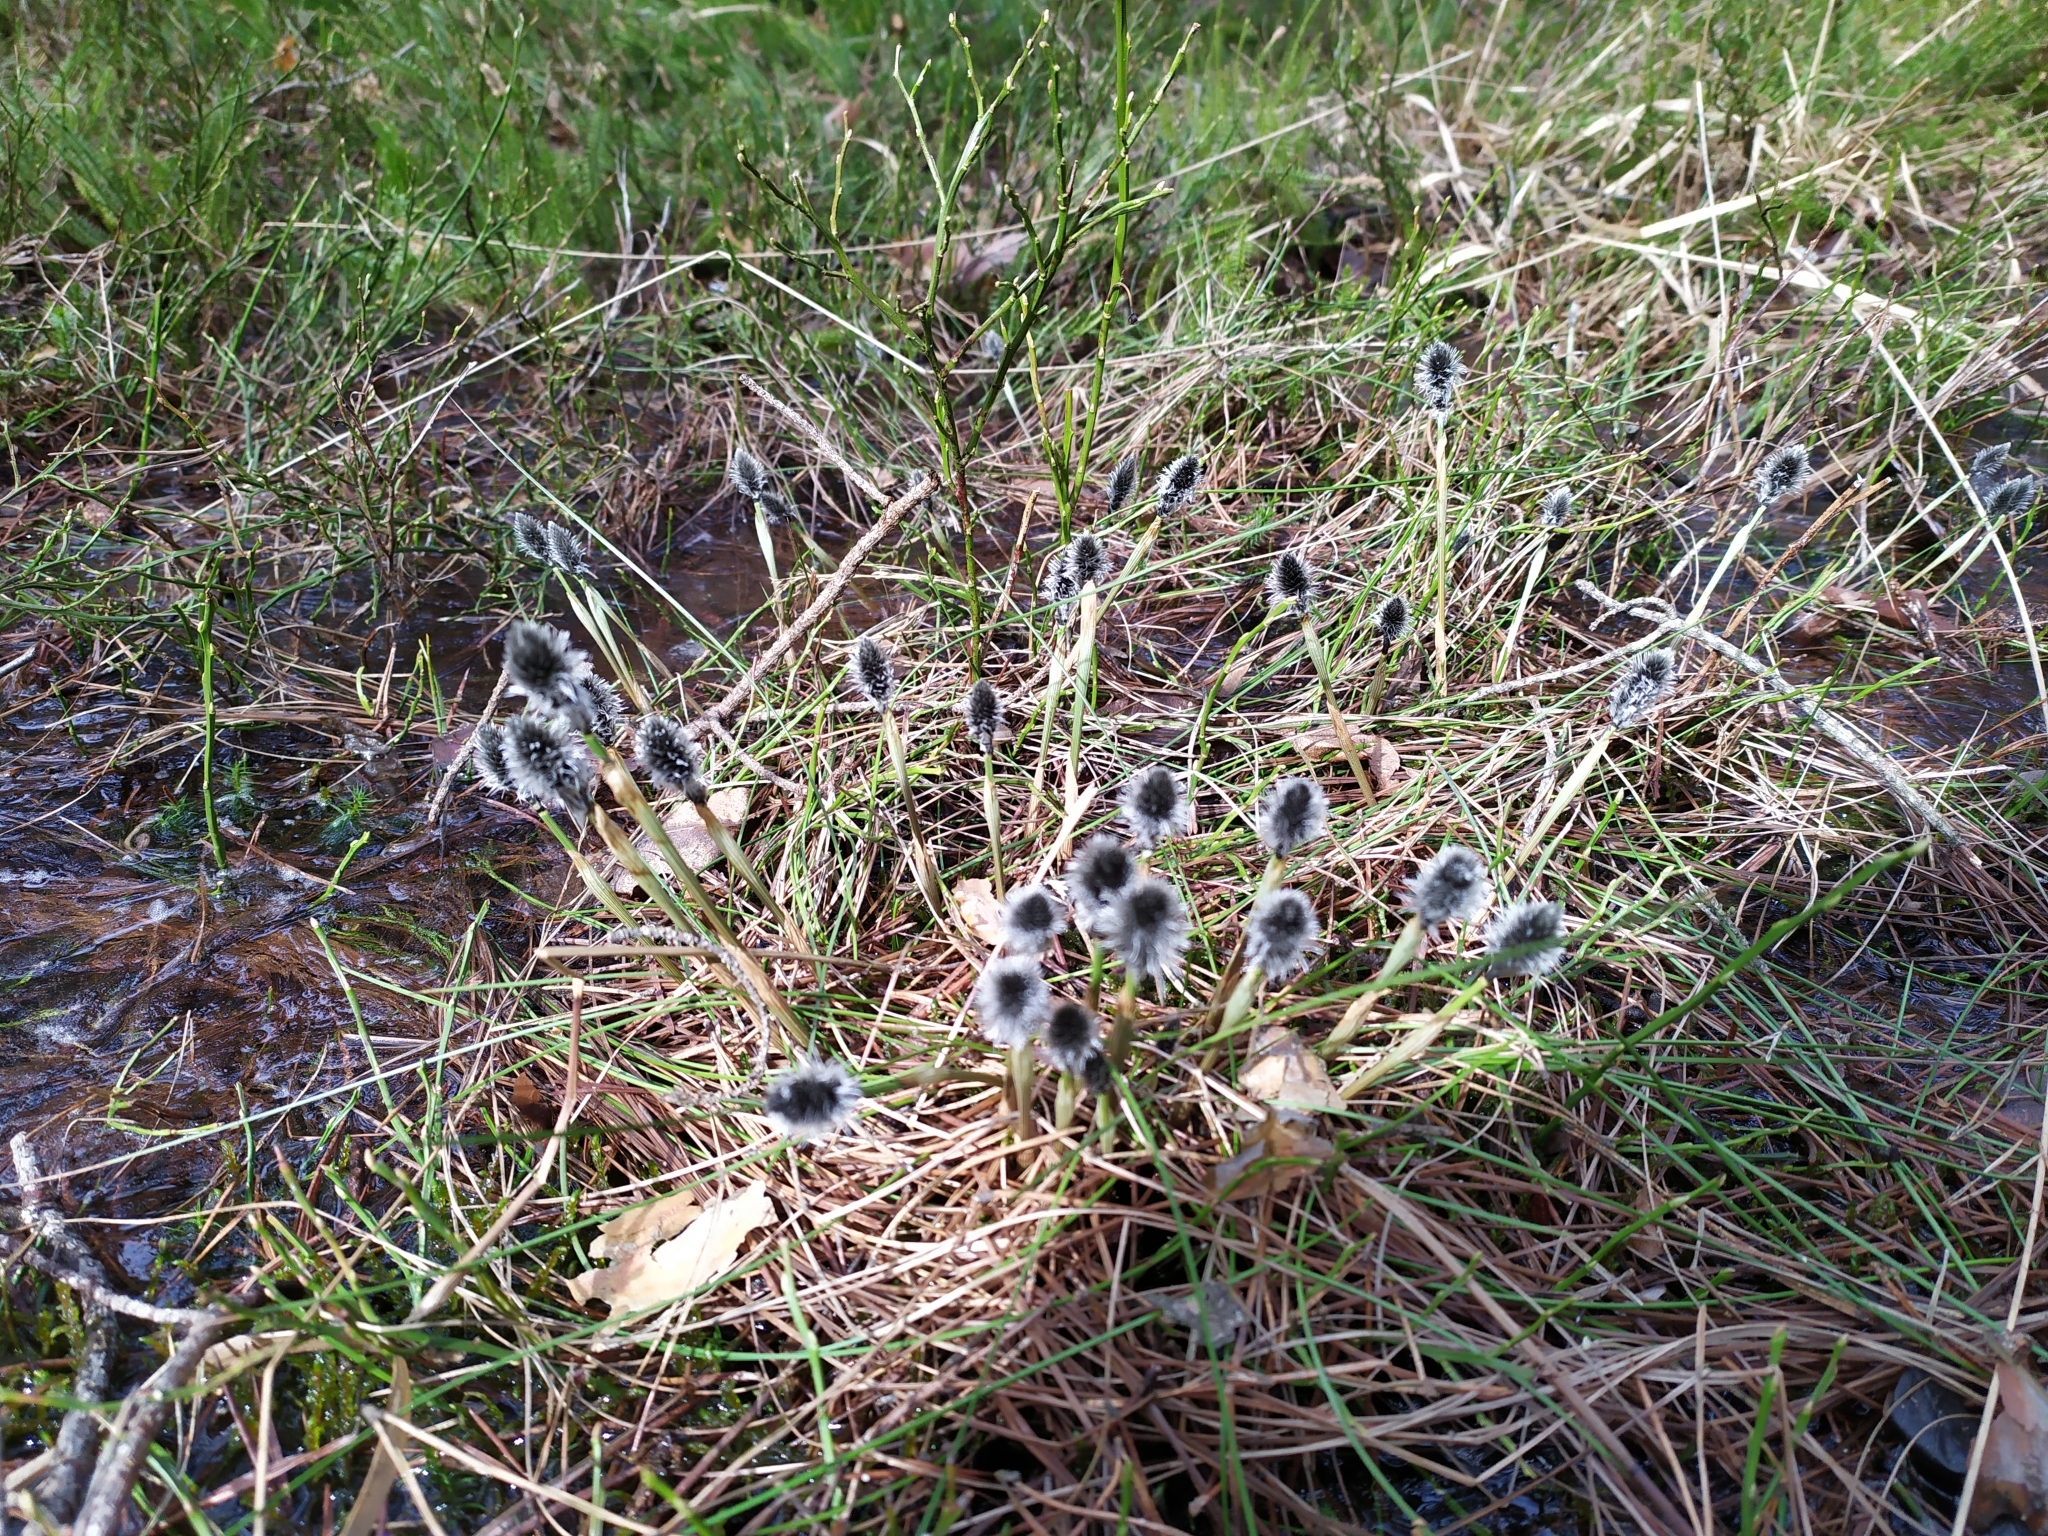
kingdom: Plantae
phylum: Tracheophyta
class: Liliopsida
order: Poales
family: Cyperaceae
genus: Eriophorum
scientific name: Eriophorum vaginatum
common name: Hare's-tail cottongrass
